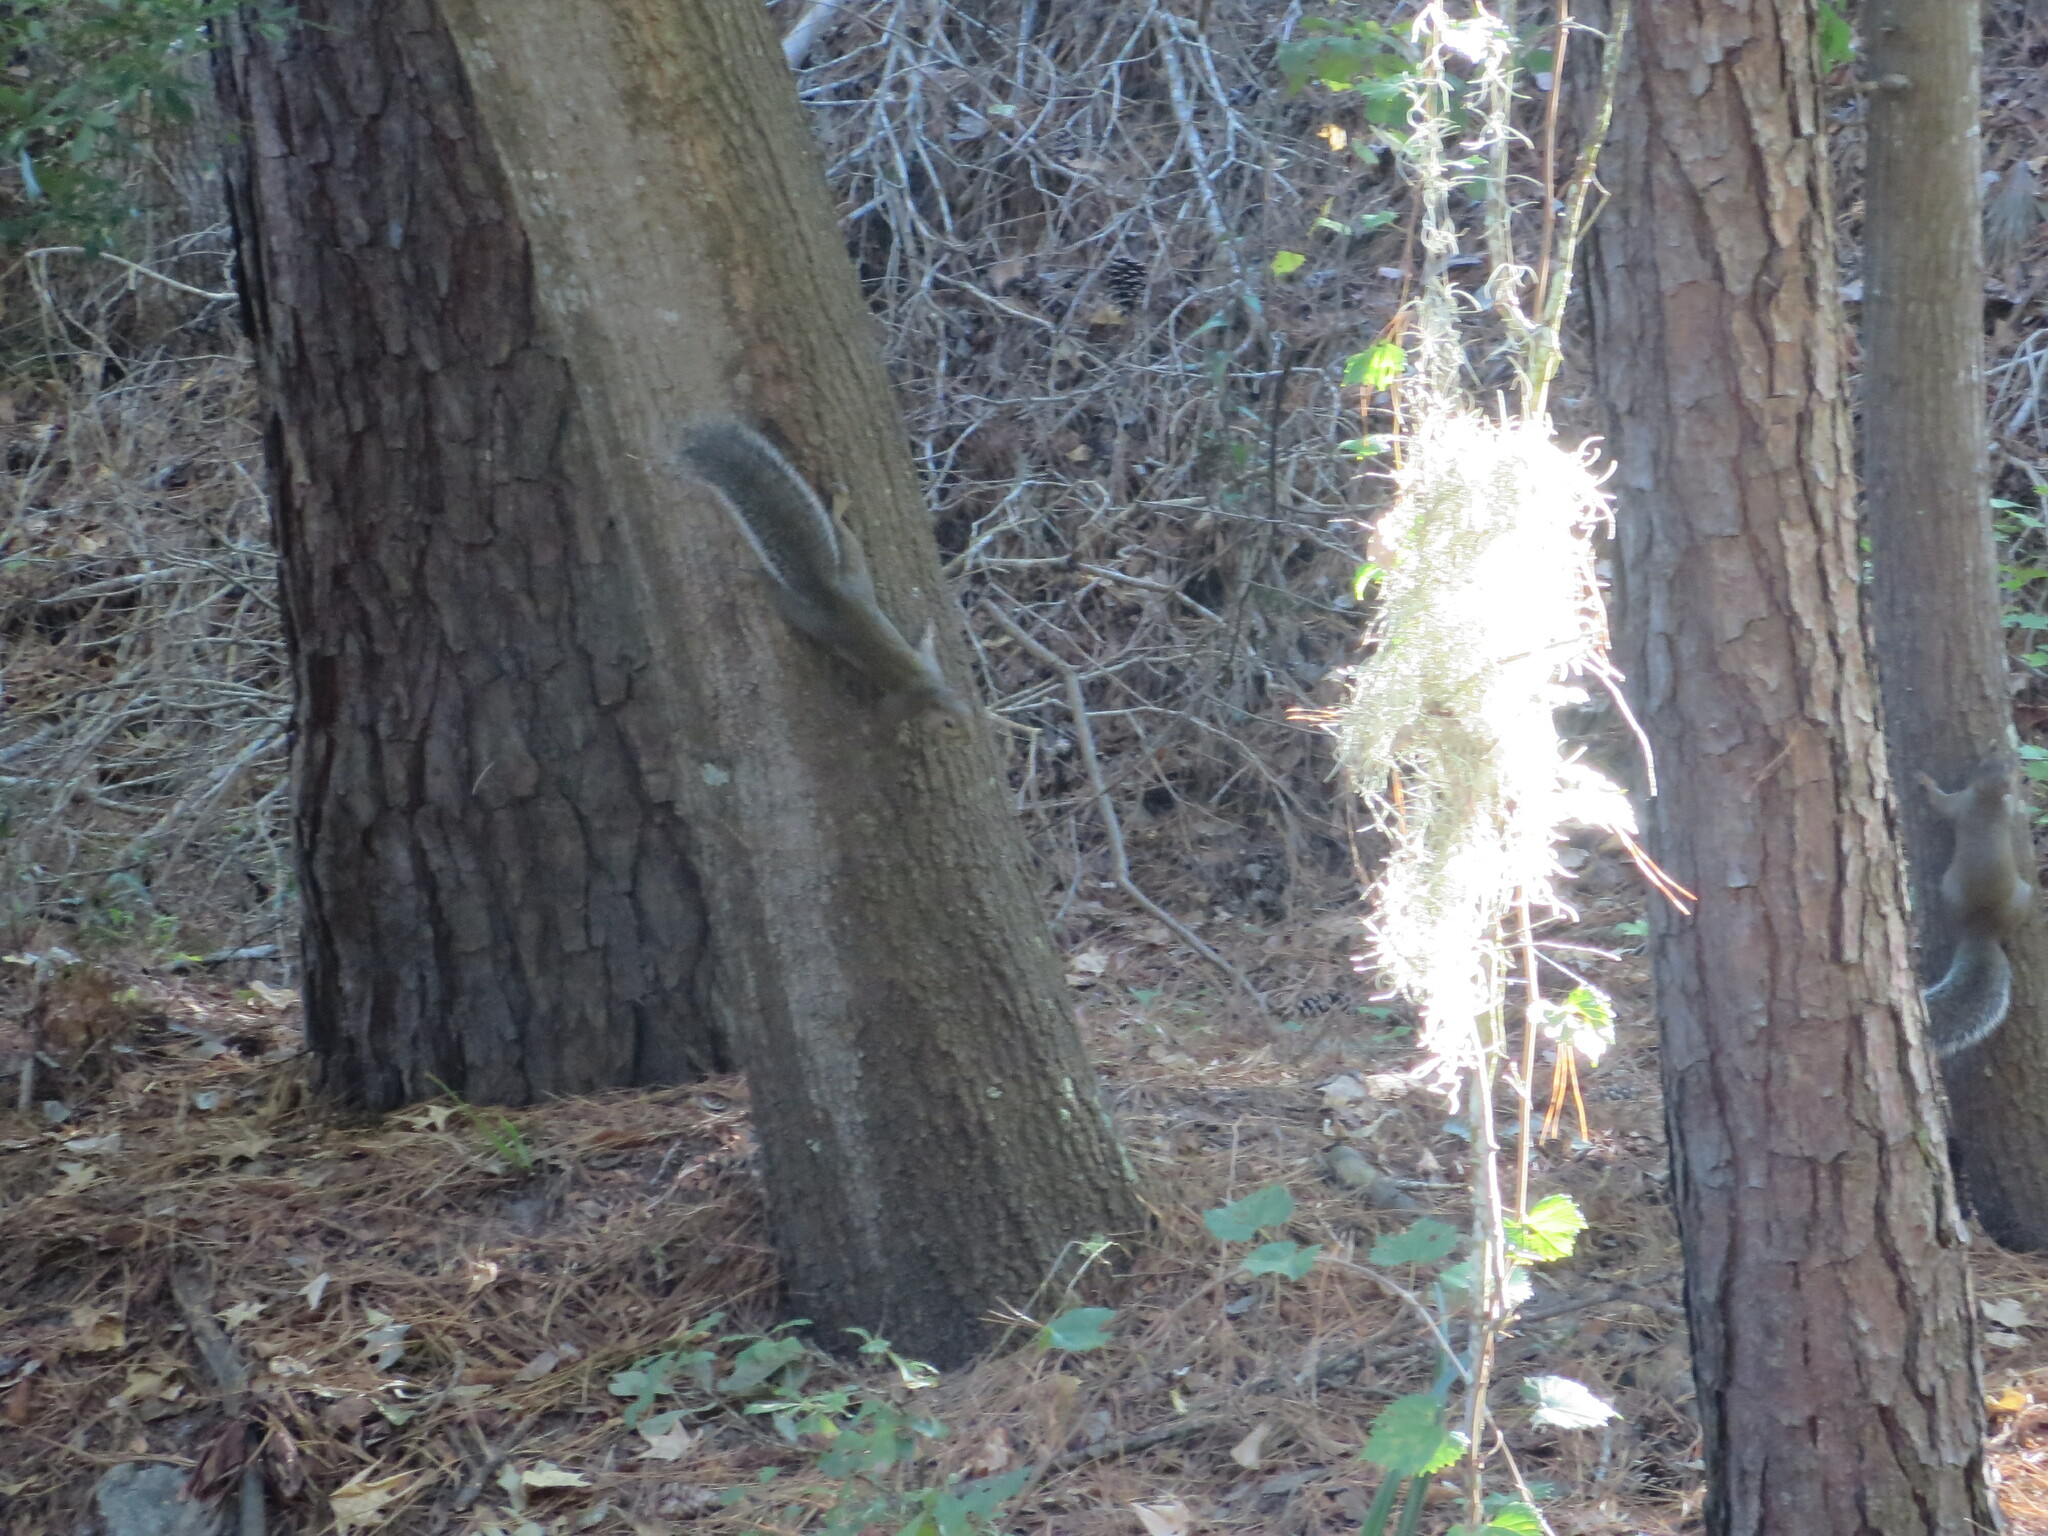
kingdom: Animalia
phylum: Chordata
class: Mammalia
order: Rodentia
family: Sciuridae
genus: Sciurus
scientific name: Sciurus carolinensis
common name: Eastern gray squirrel
